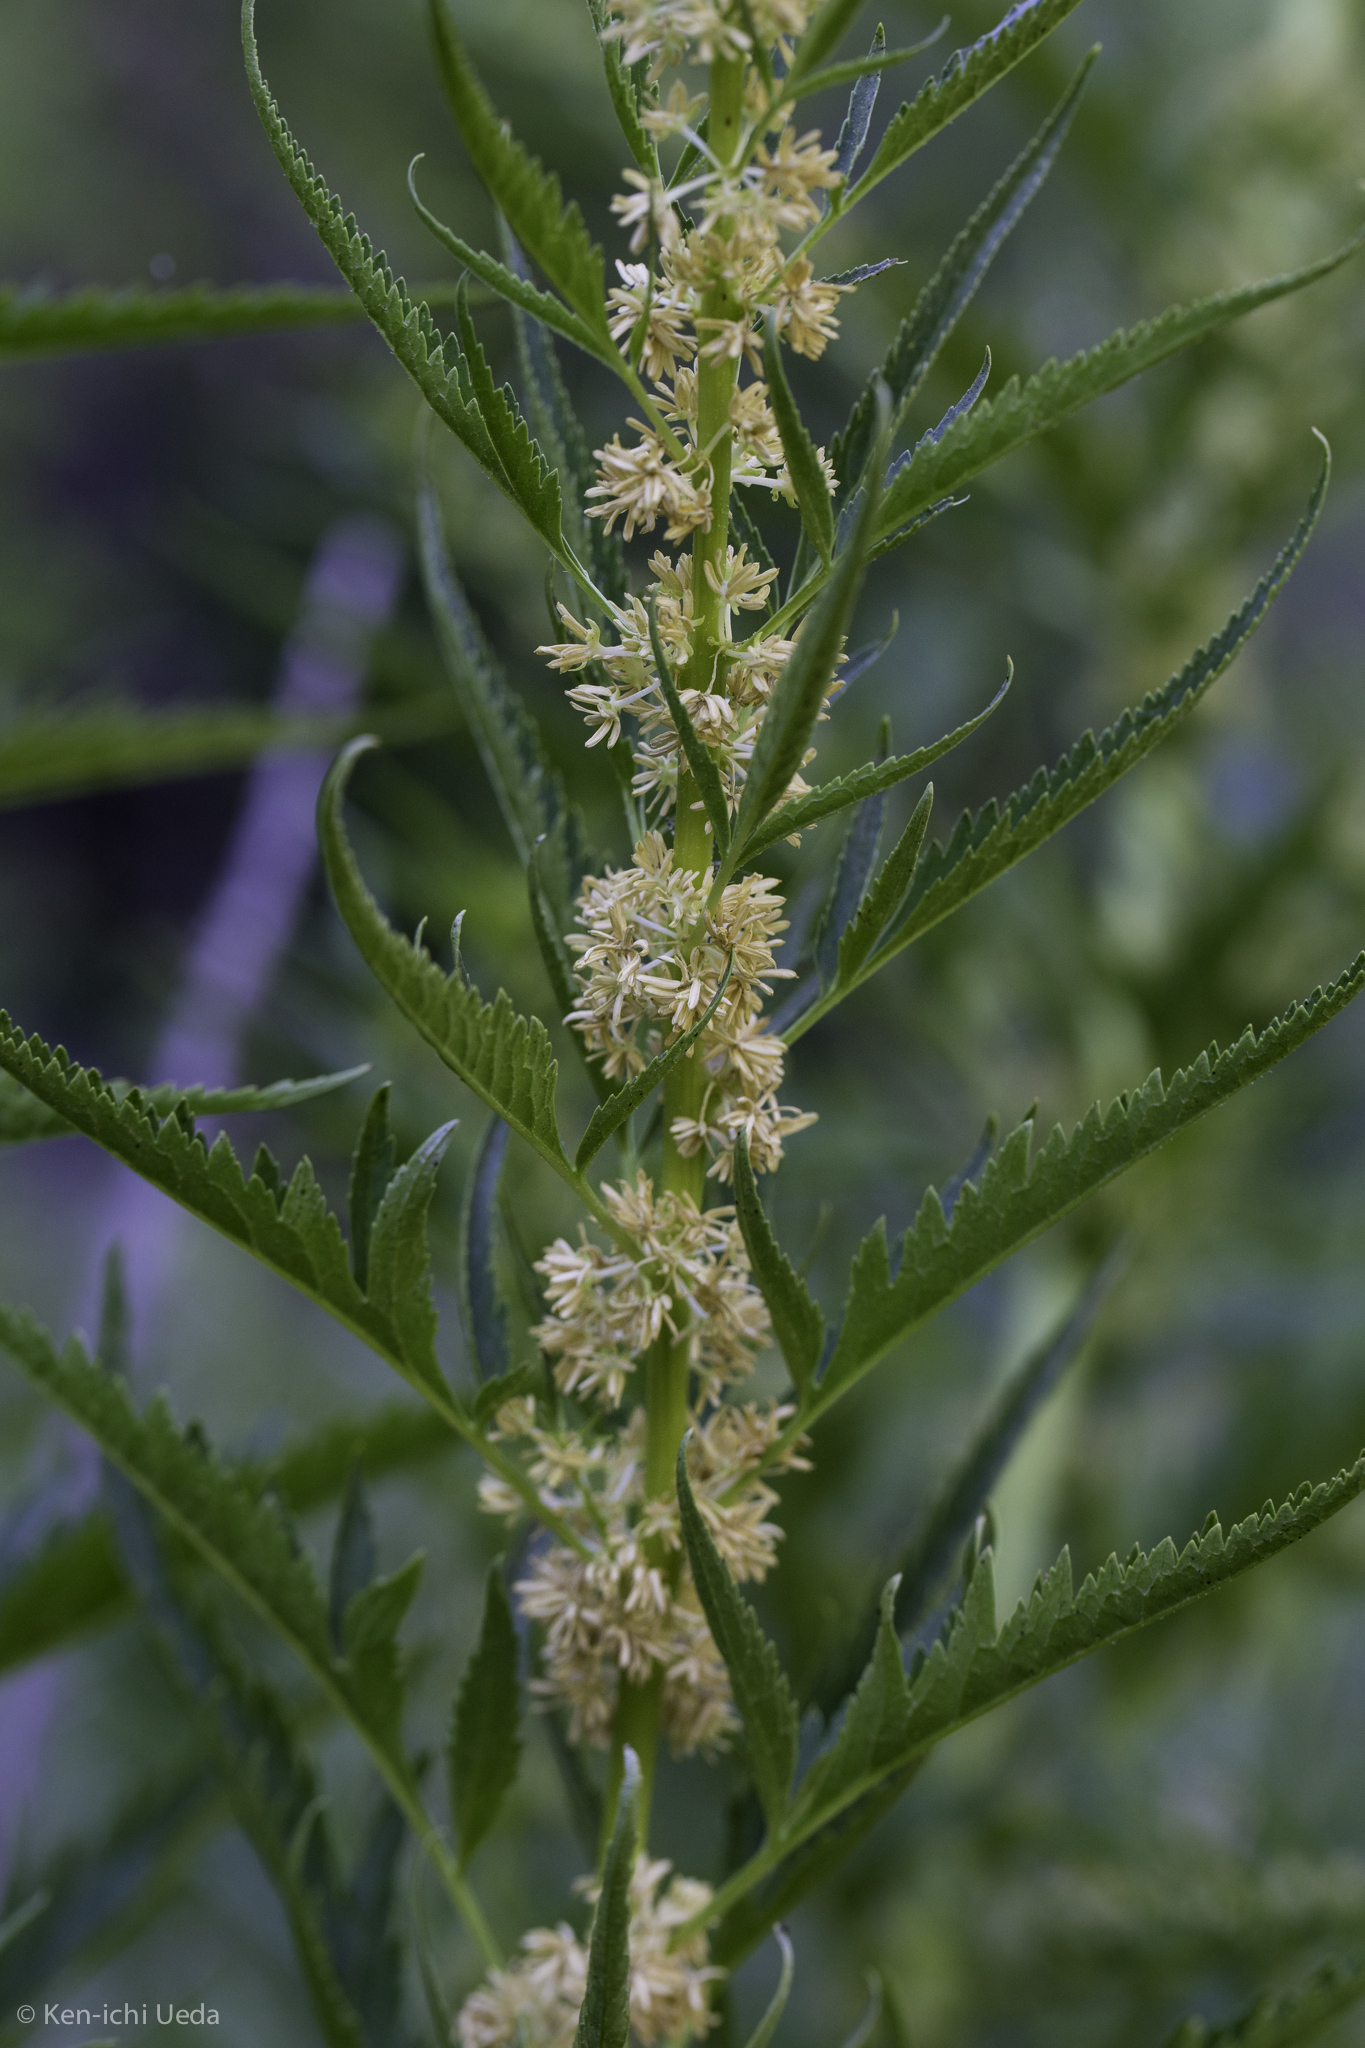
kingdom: Plantae
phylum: Tracheophyta
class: Magnoliopsida
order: Cucurbitales
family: Datiscaceae
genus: Datisca
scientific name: Datisca glomerata
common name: Durango-root
